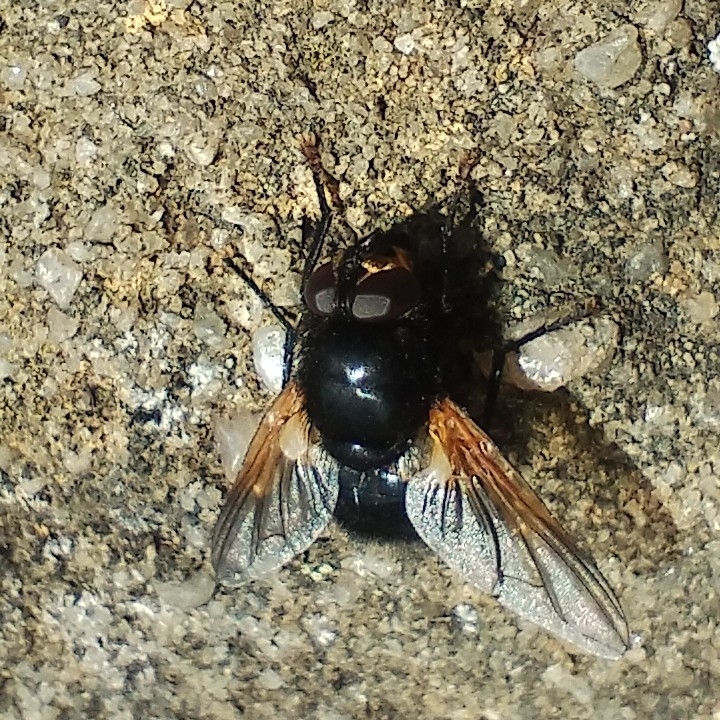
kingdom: Animalia
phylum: Arthropoda
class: Insecta
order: Diptera
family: Muscidae
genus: Mesembrina
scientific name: Mesembrina meridiana
